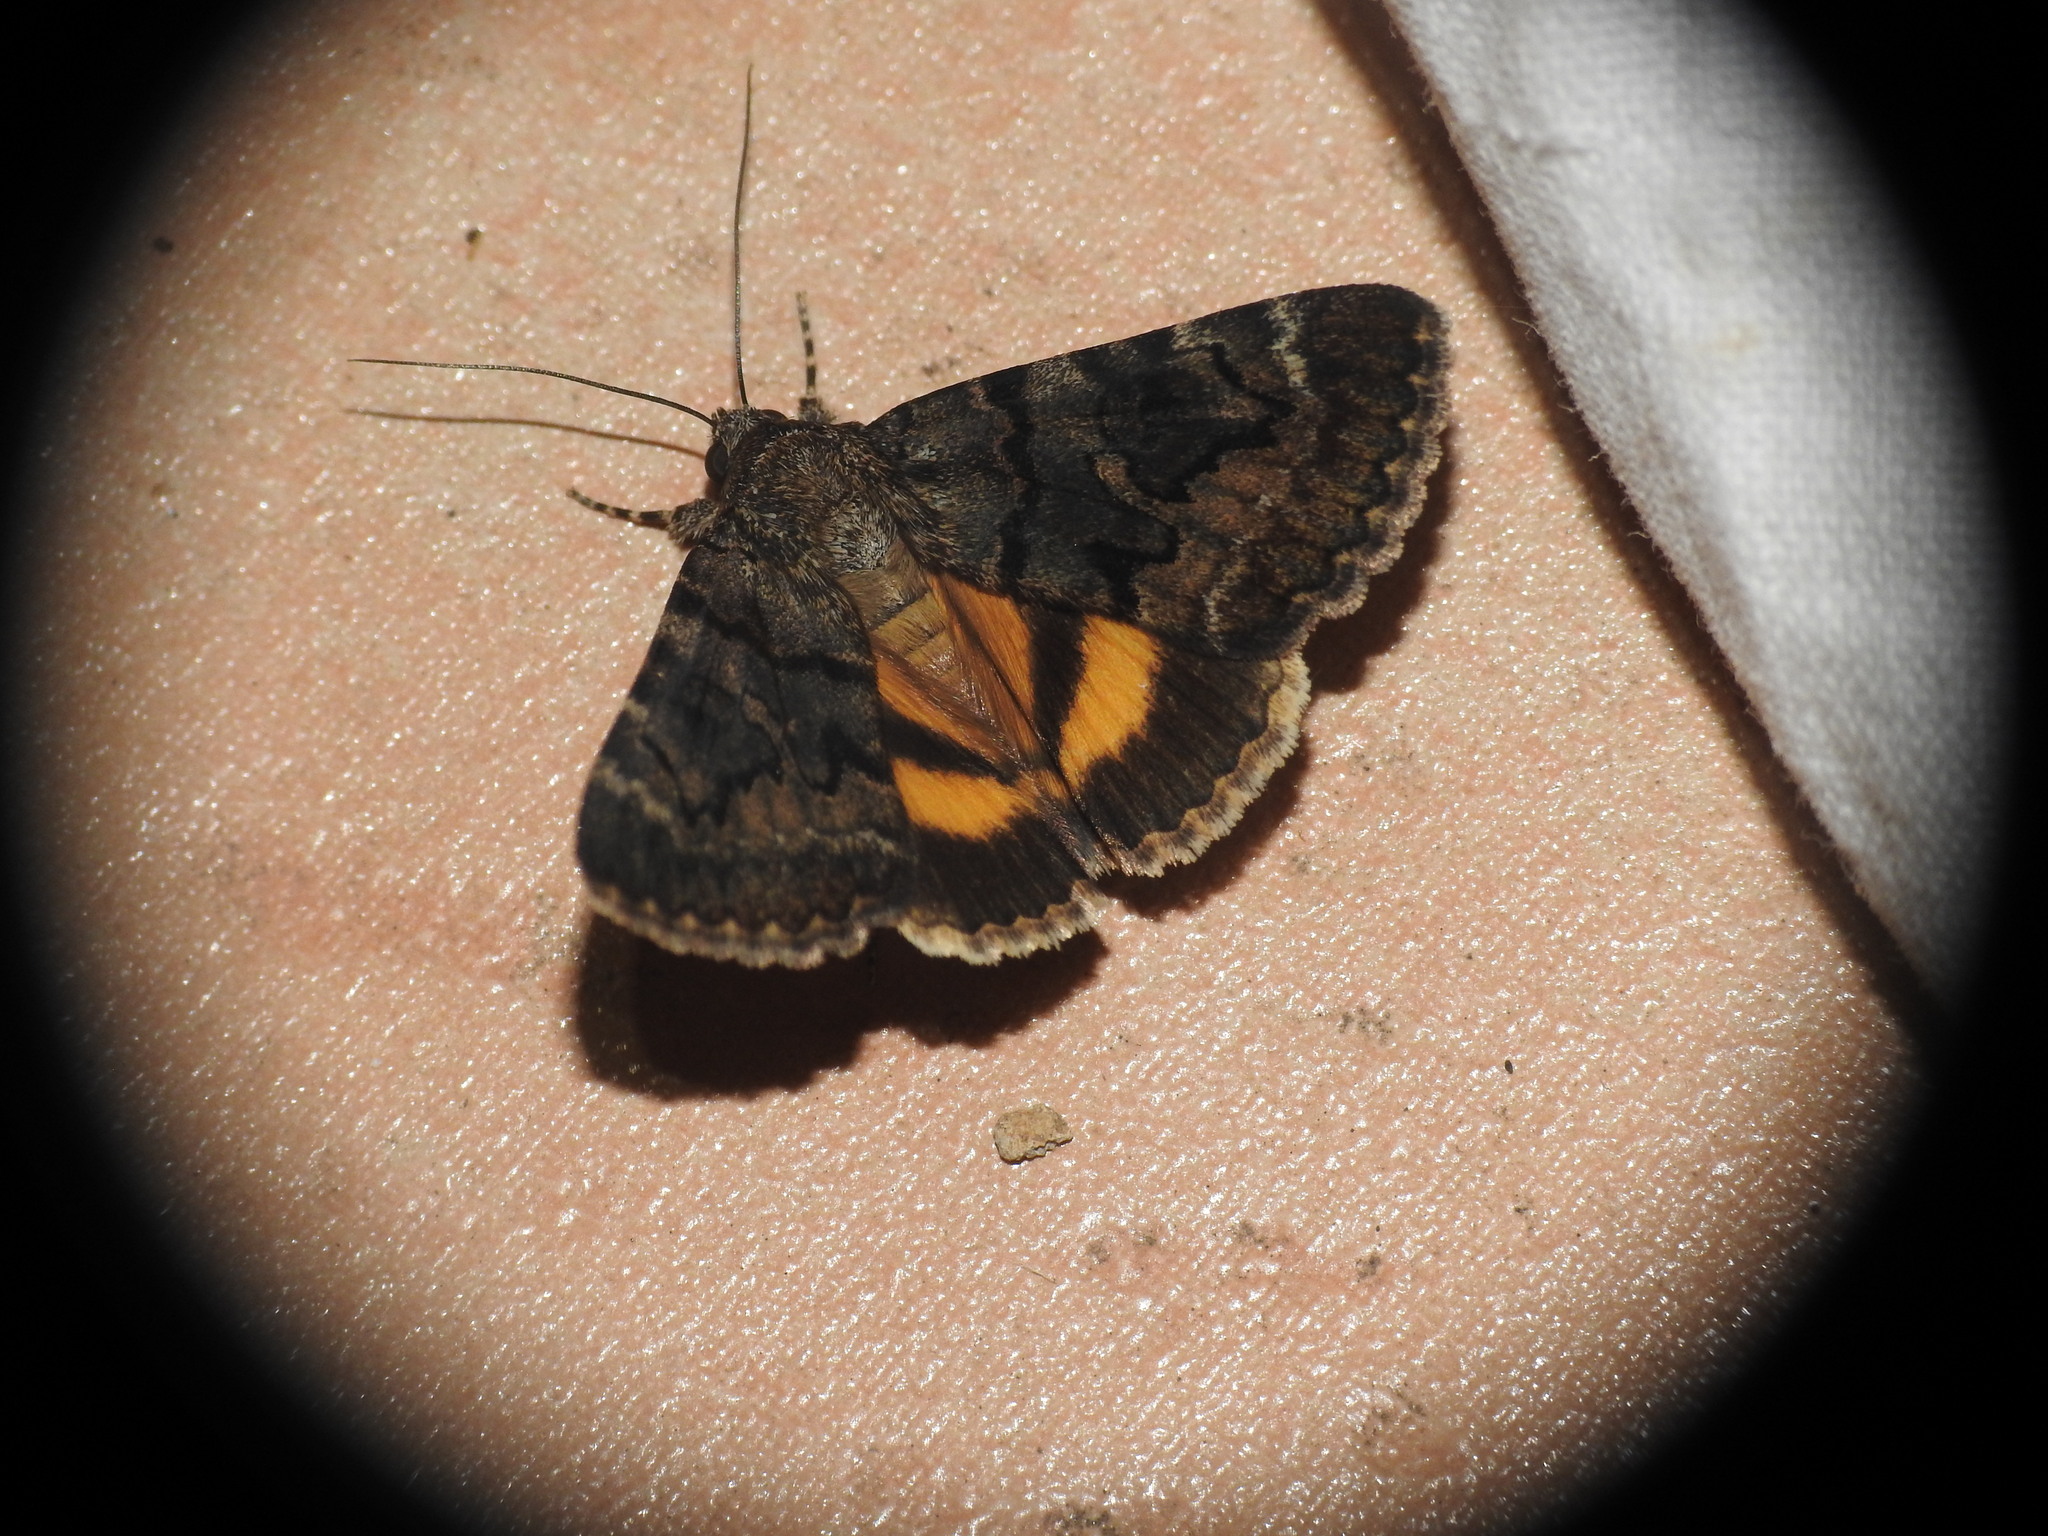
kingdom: Animalia
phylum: Arthropoda
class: Insecta
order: Lepidoptera
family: Erebidae
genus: Catocala
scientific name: Catocala nymphagoga
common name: Oak yellow underwing
